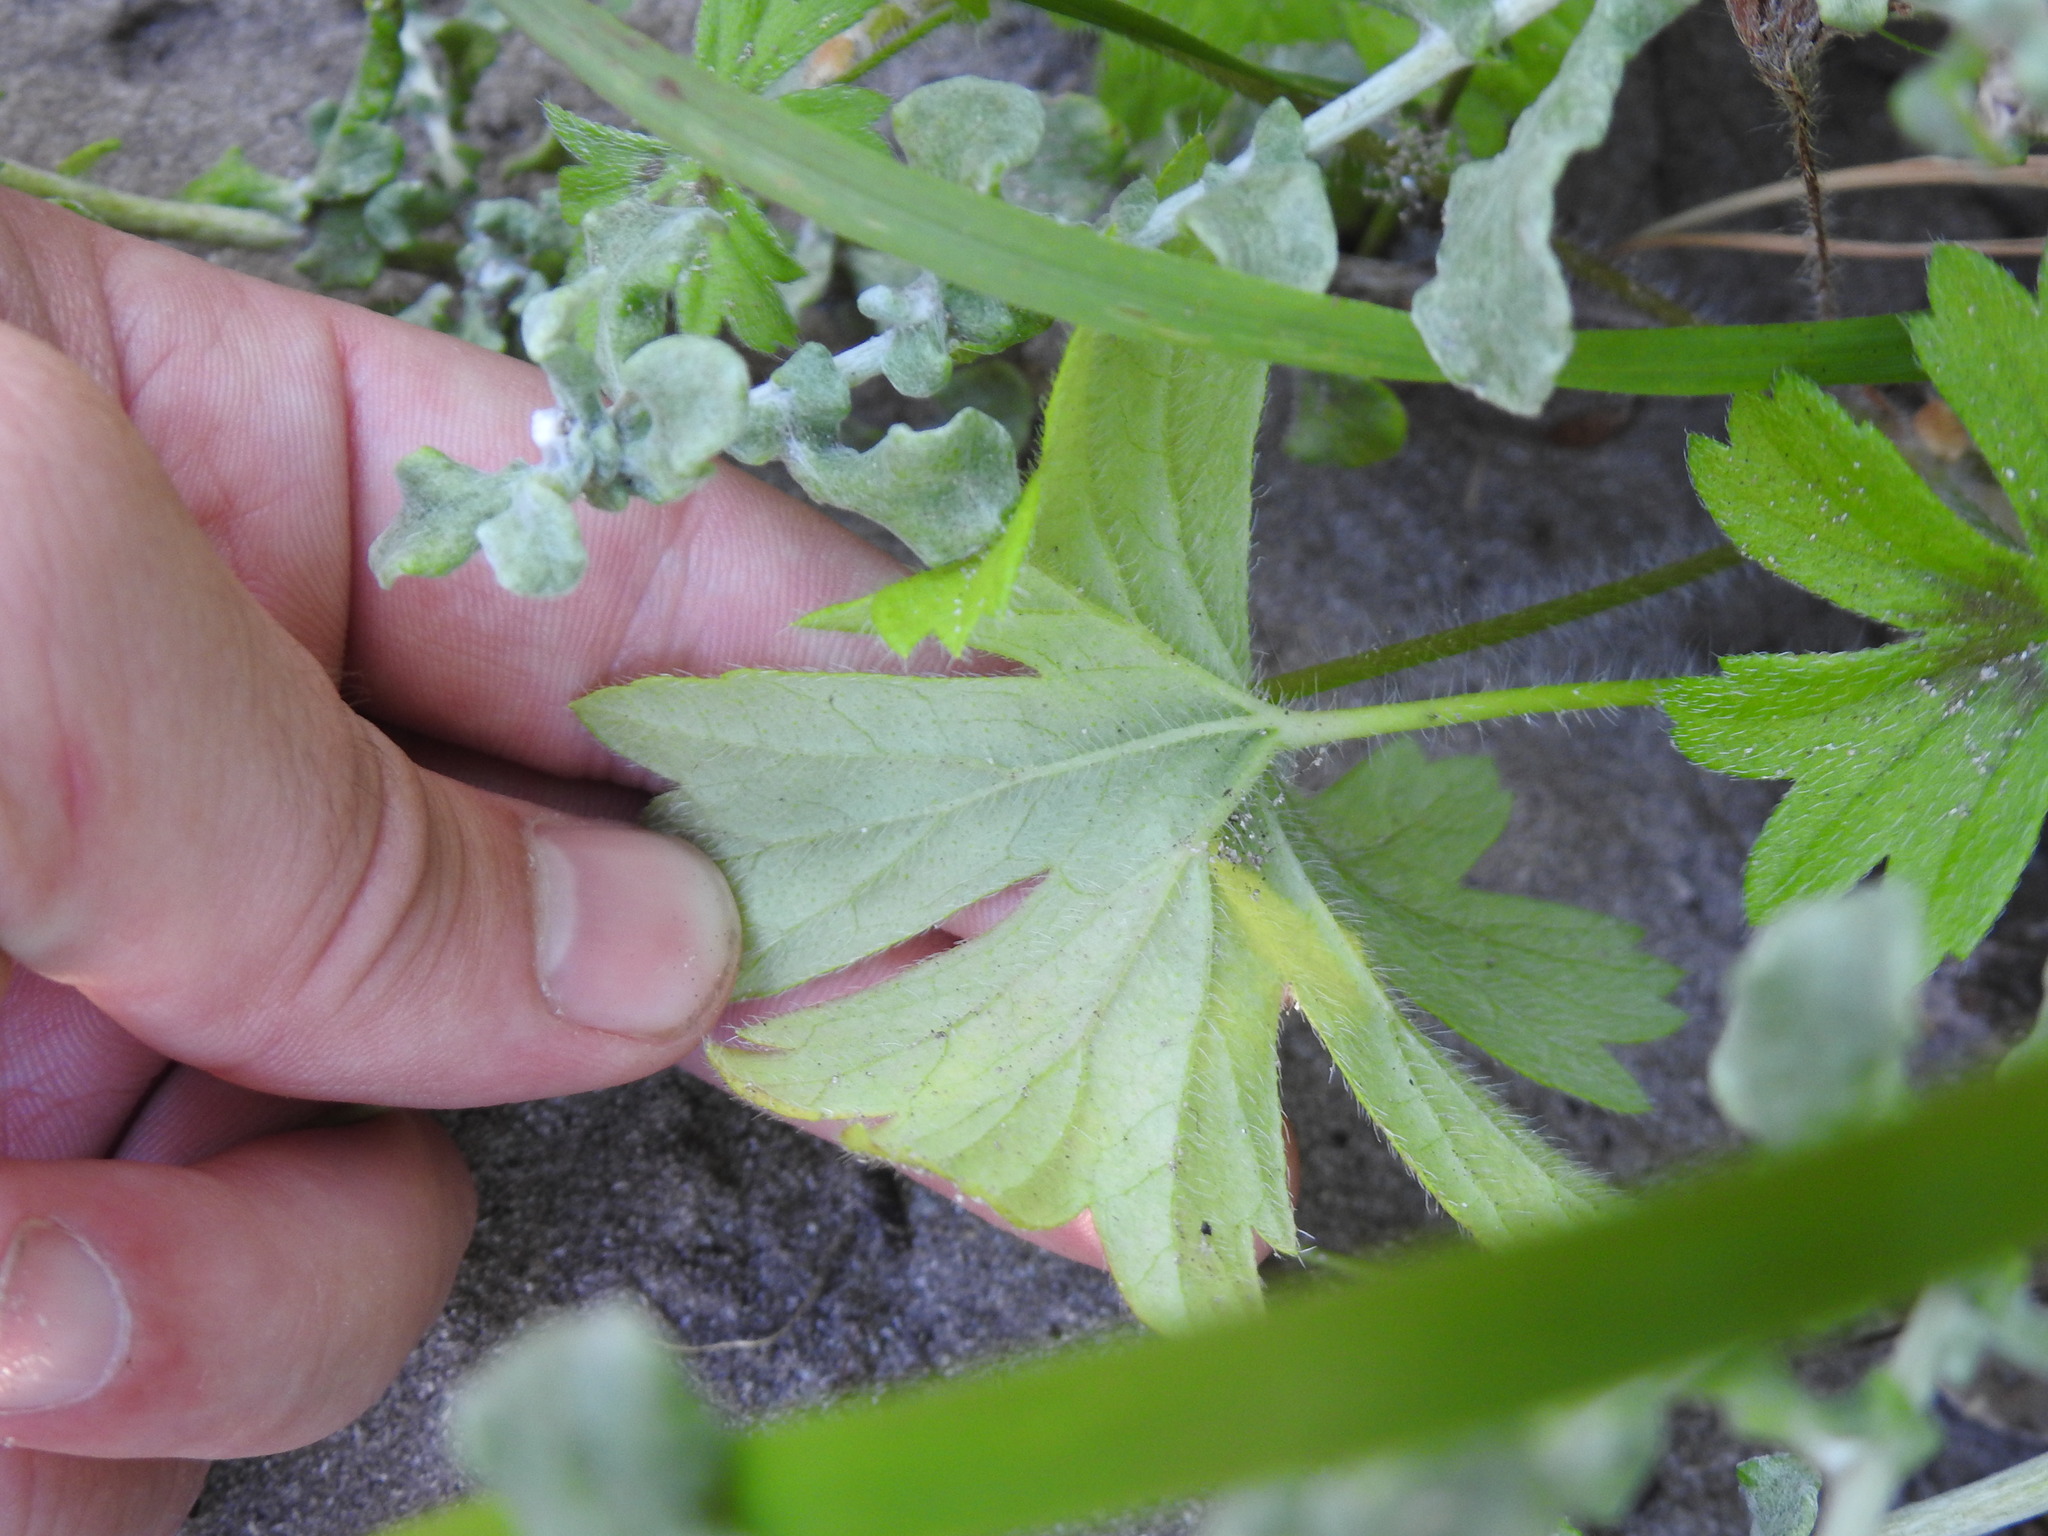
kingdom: Plantae
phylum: Tracheophyta
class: Magnoliopsida
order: Geraniales
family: Geraniaceae
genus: Pelargonium
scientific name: Pelargonium alchemilloides
